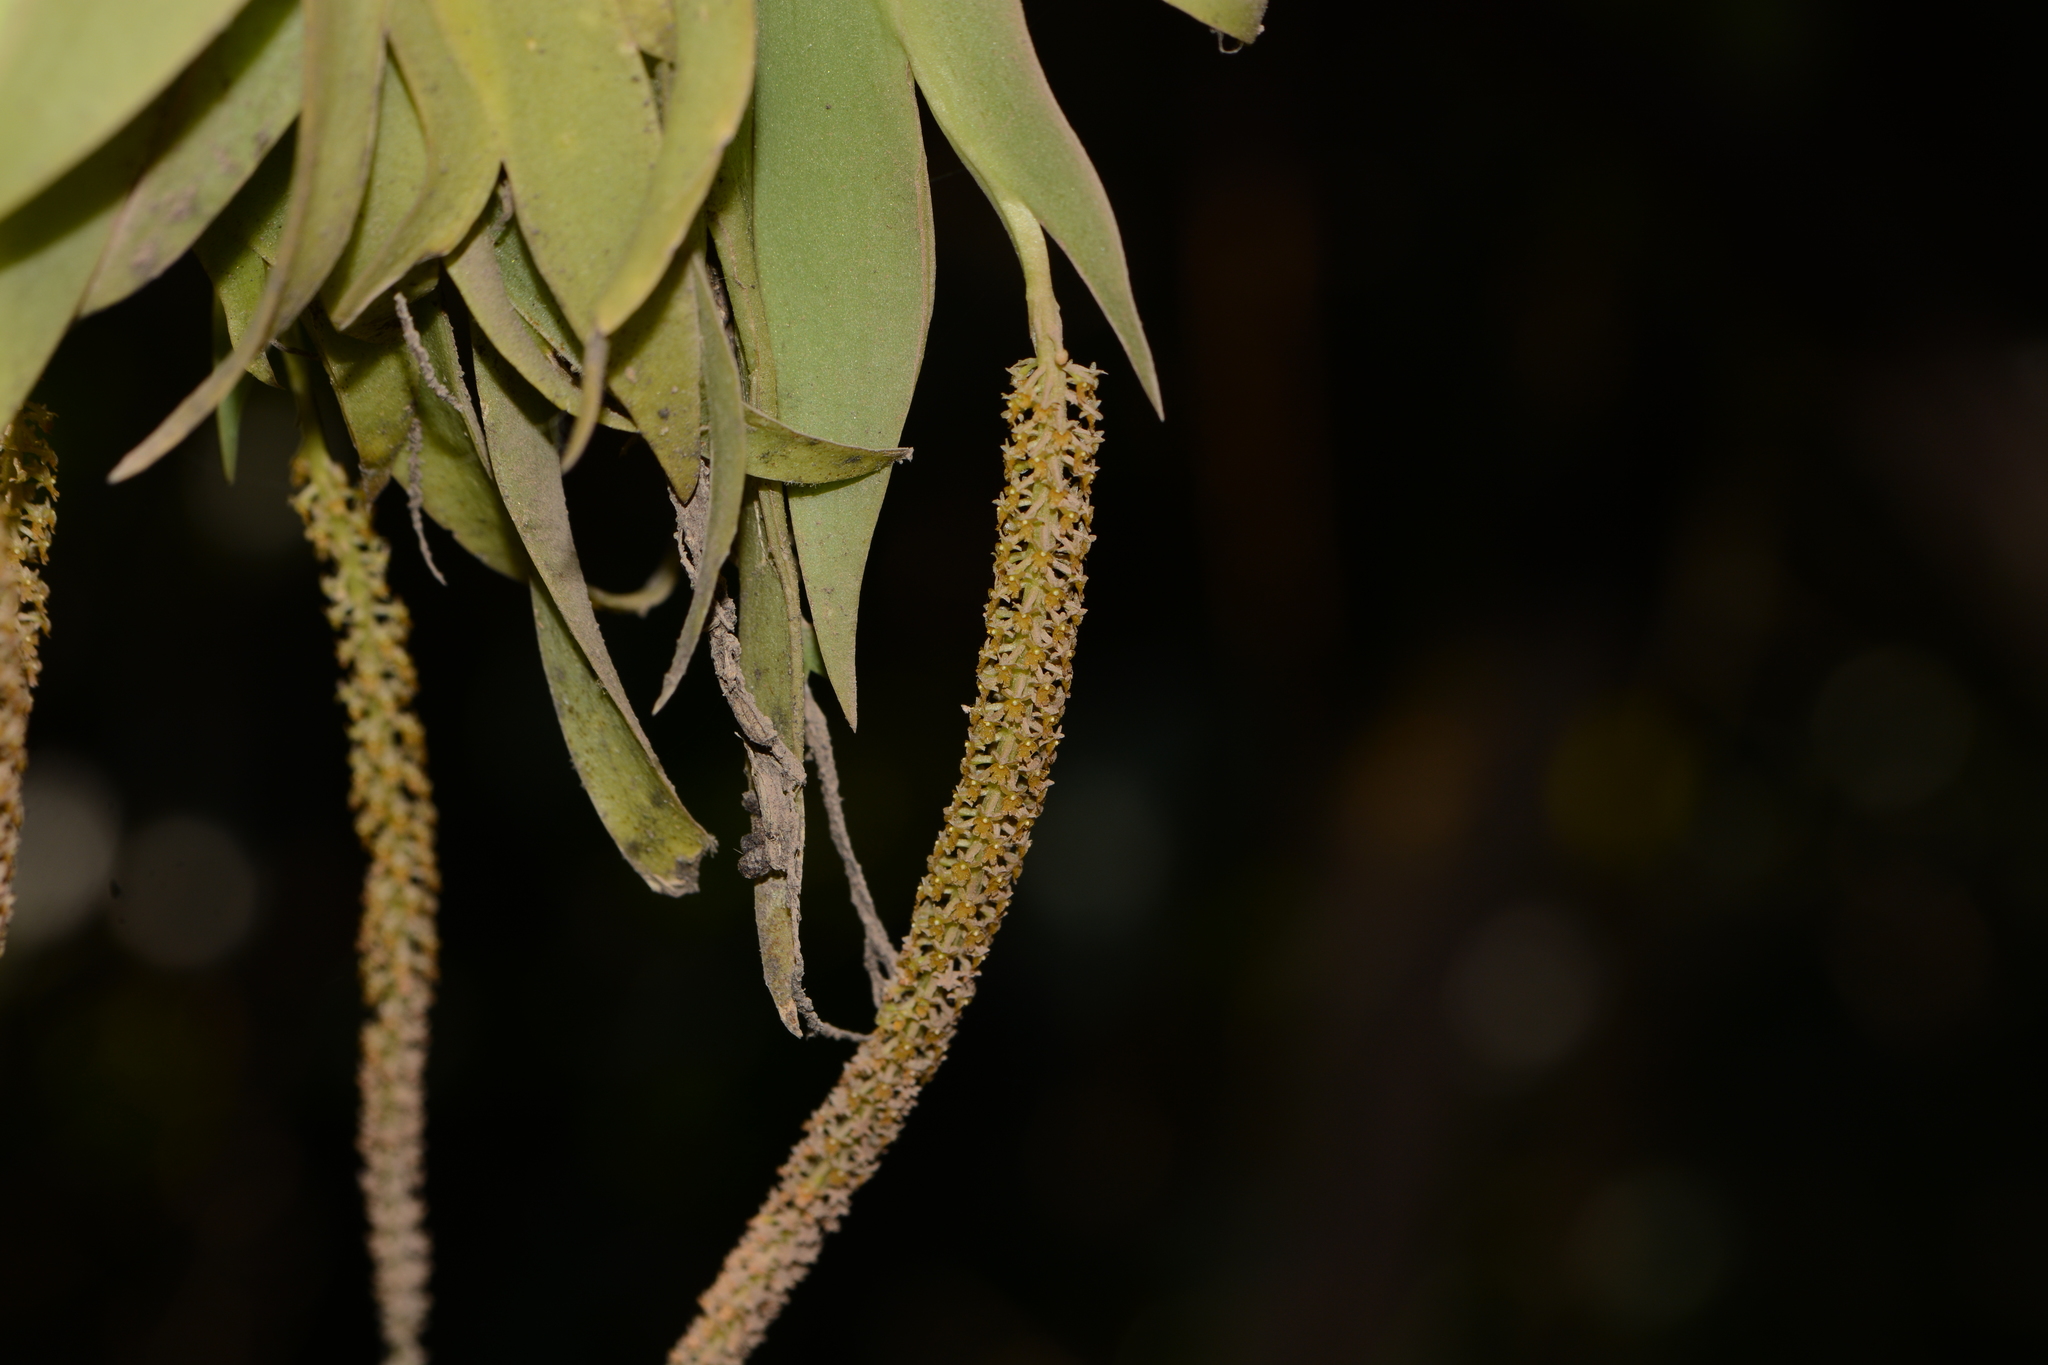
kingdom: Plantae
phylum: Tracheophyta
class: Liliopsida
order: Asparagales
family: Orchidaceae
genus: Oberonia
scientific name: Oberonia falconeri
